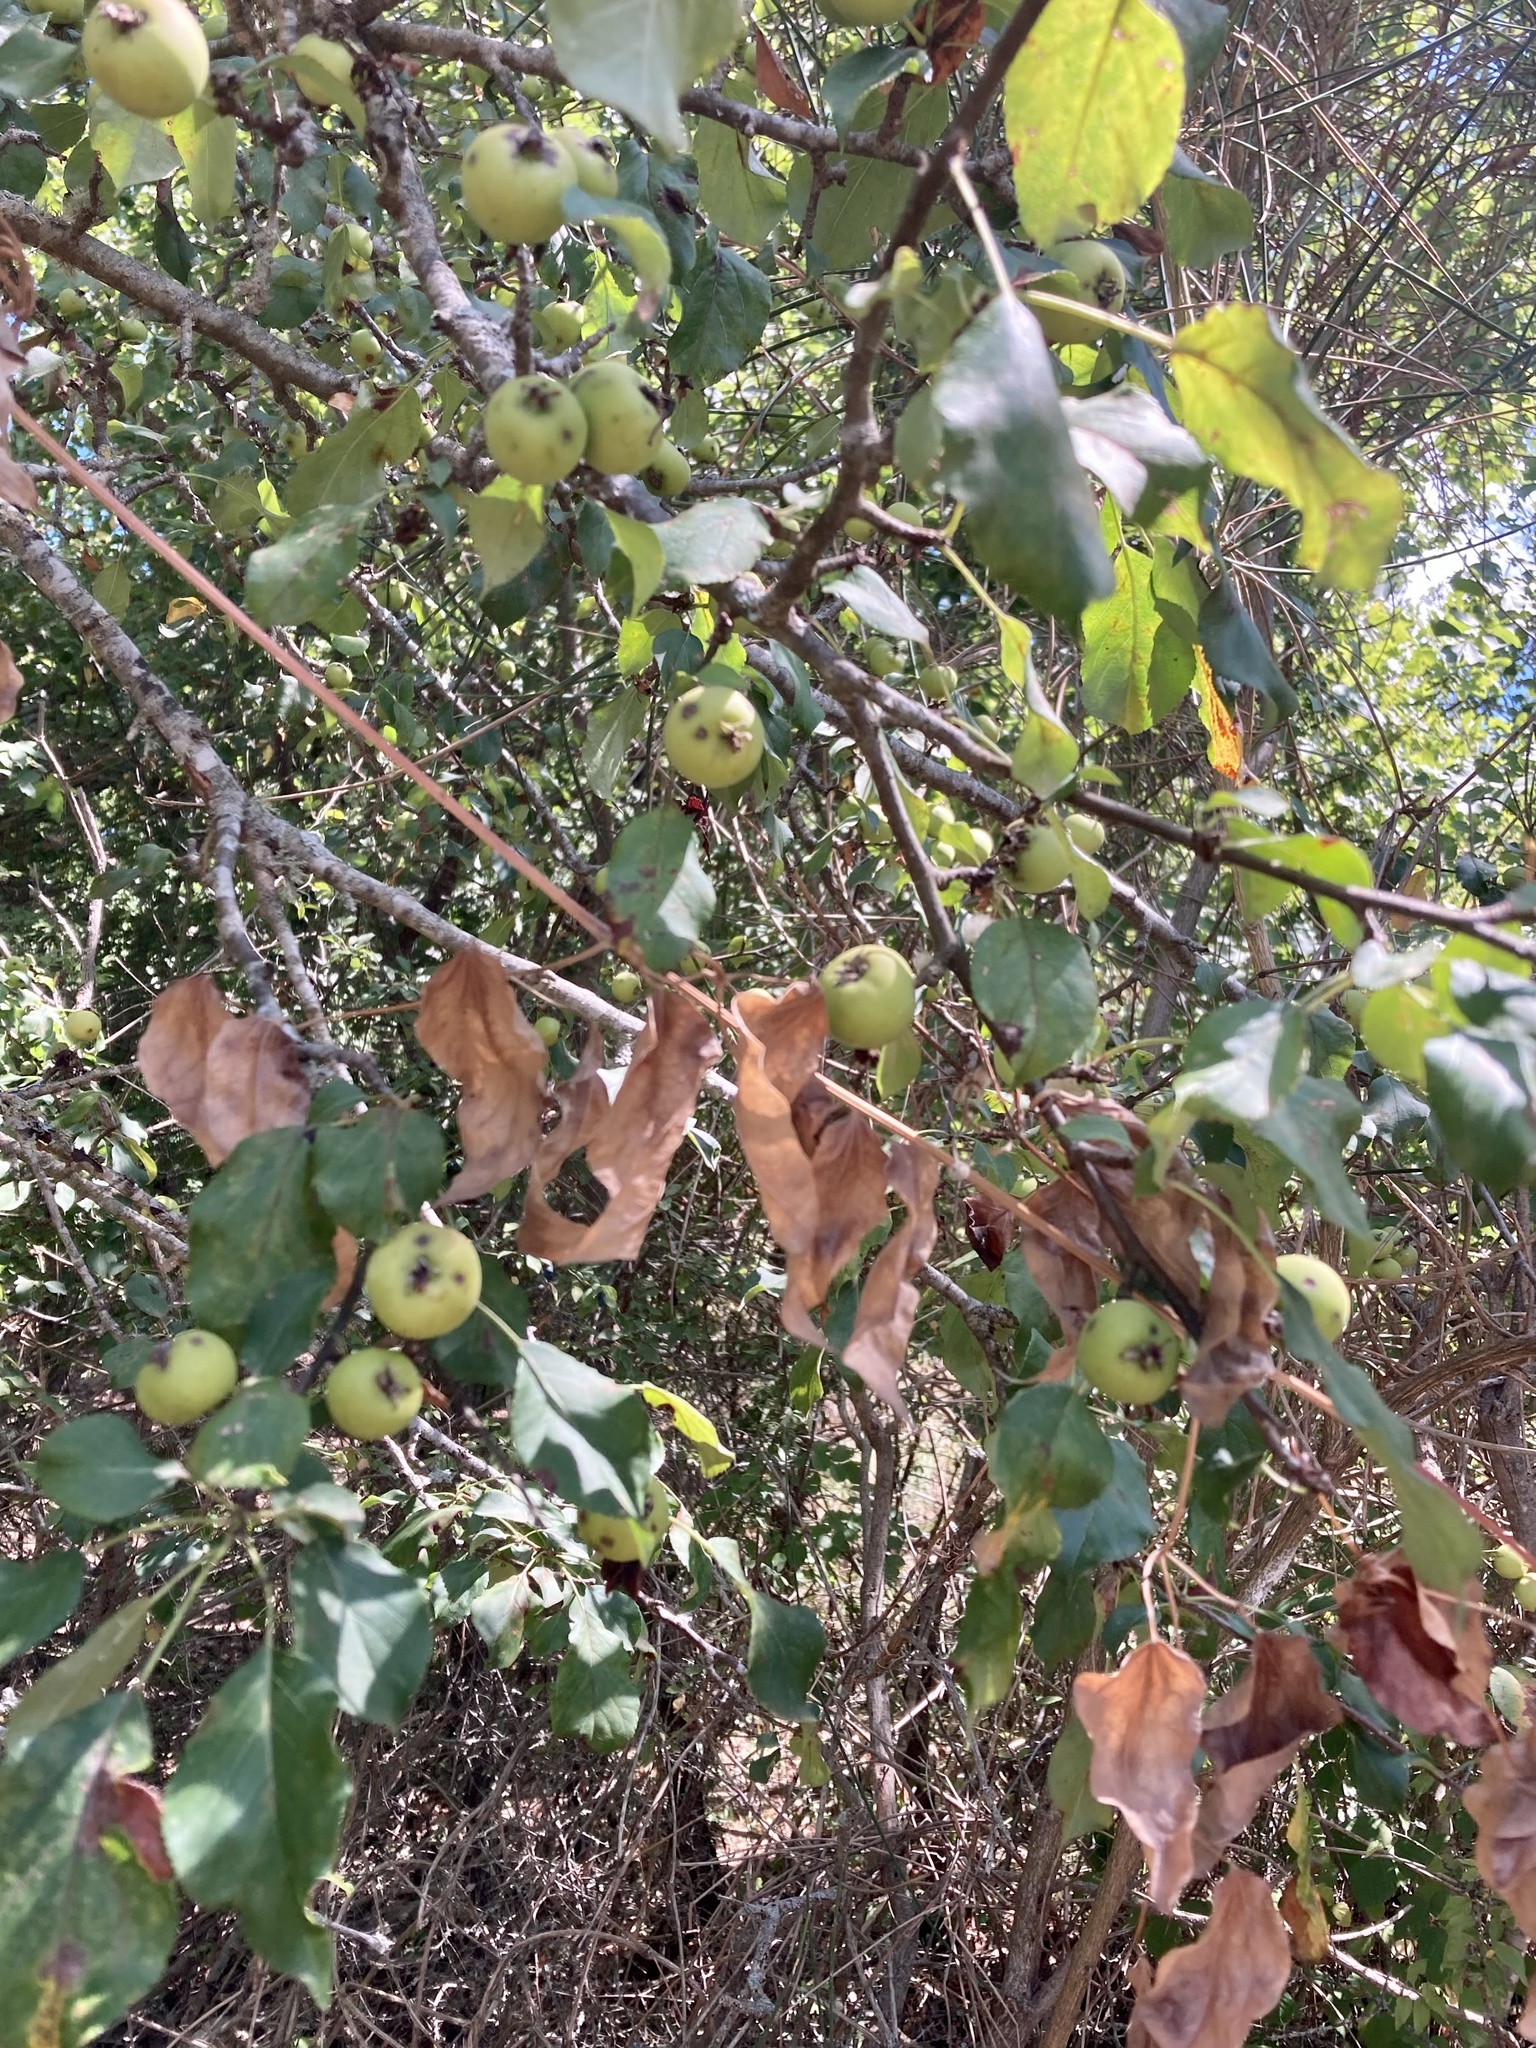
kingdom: Plantae
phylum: Tracheophyta
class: Magnoliopsida
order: Rosales
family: Rosaceae
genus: Malus
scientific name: Malus sylvestris
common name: Crab apple
